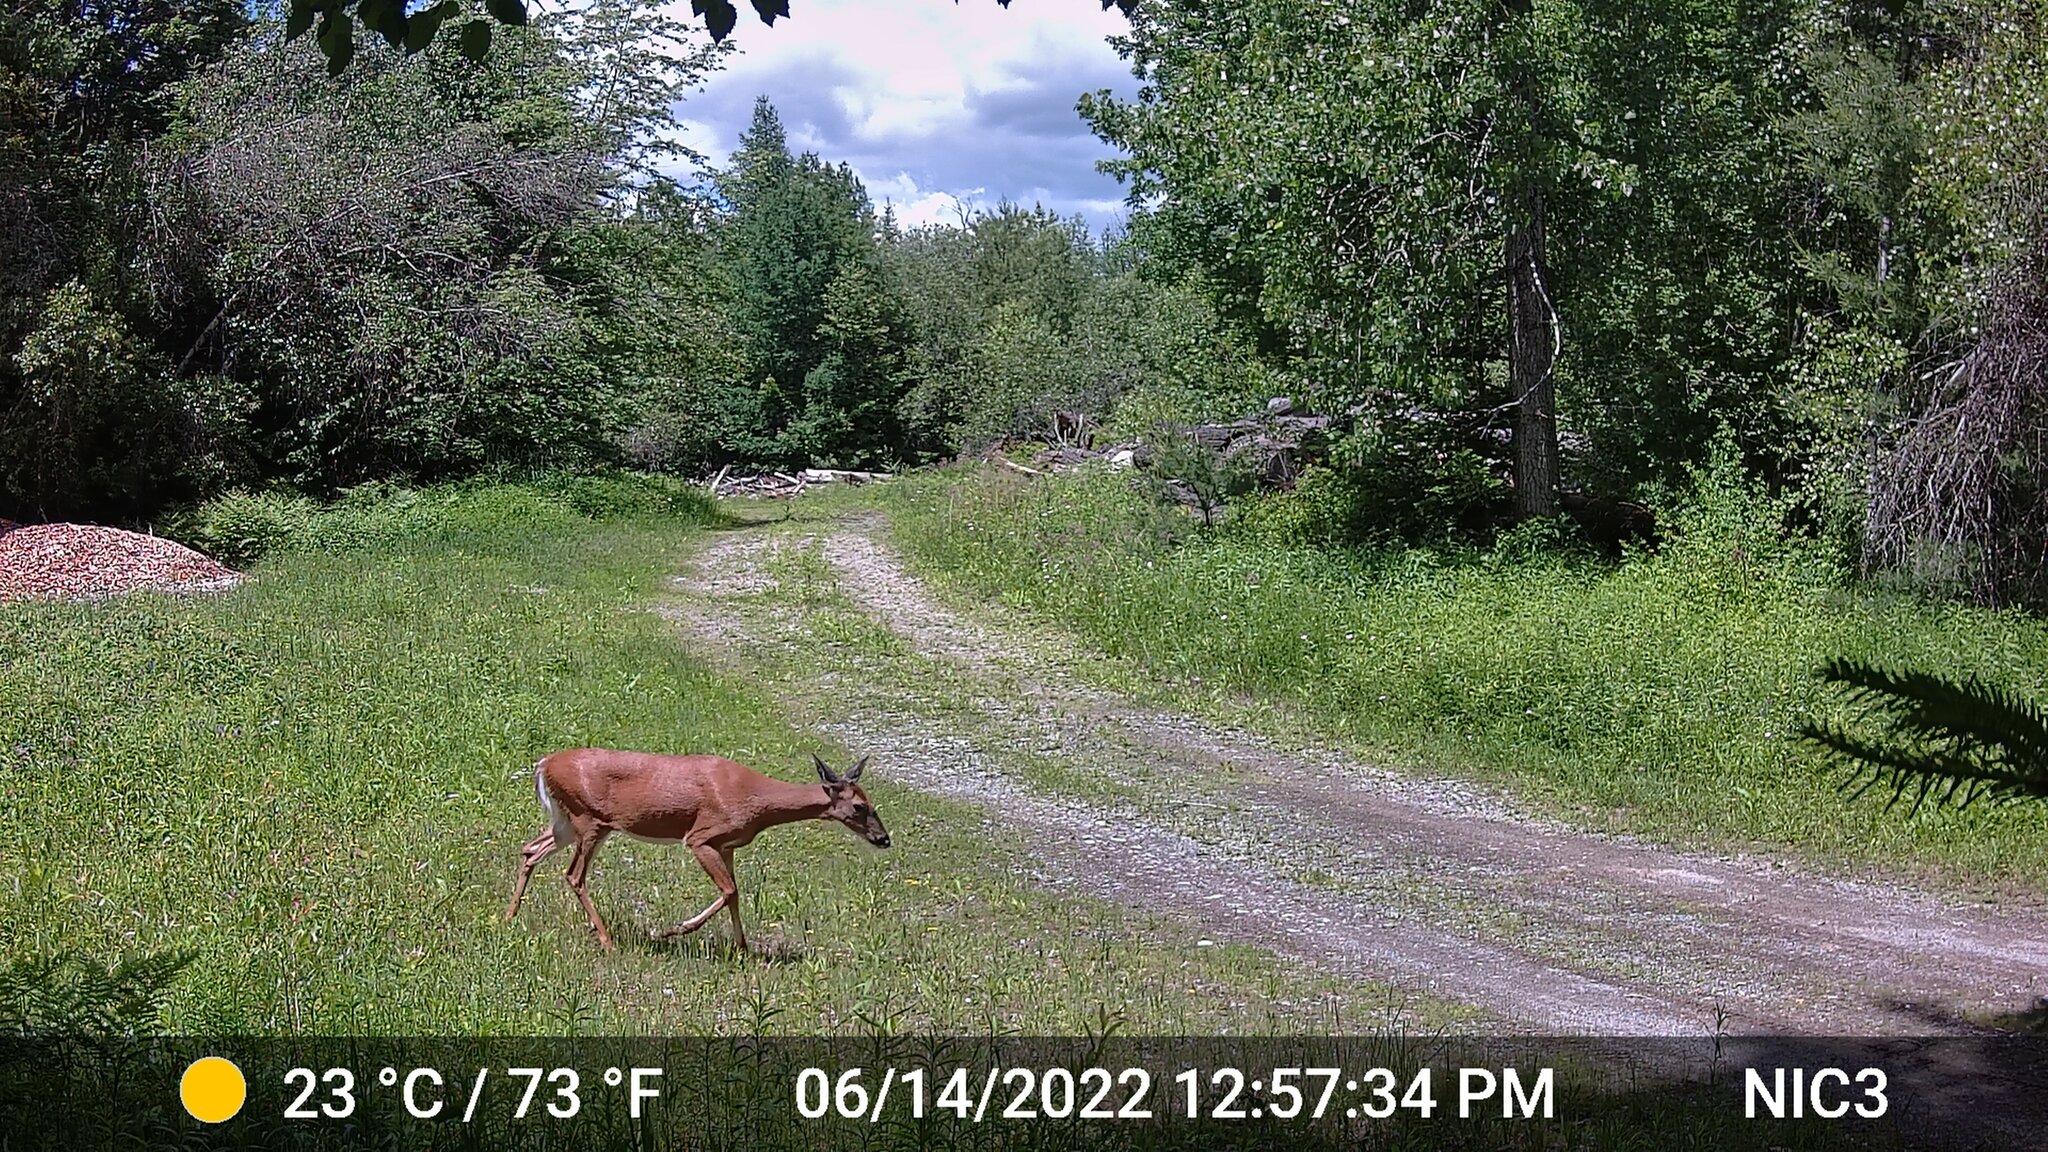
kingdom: Animalia
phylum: Chordata
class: Mammalia
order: Artiodactyla
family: Cervidae
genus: Odocoileus
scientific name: Odocoileus virginianus
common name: White-tailed deer
